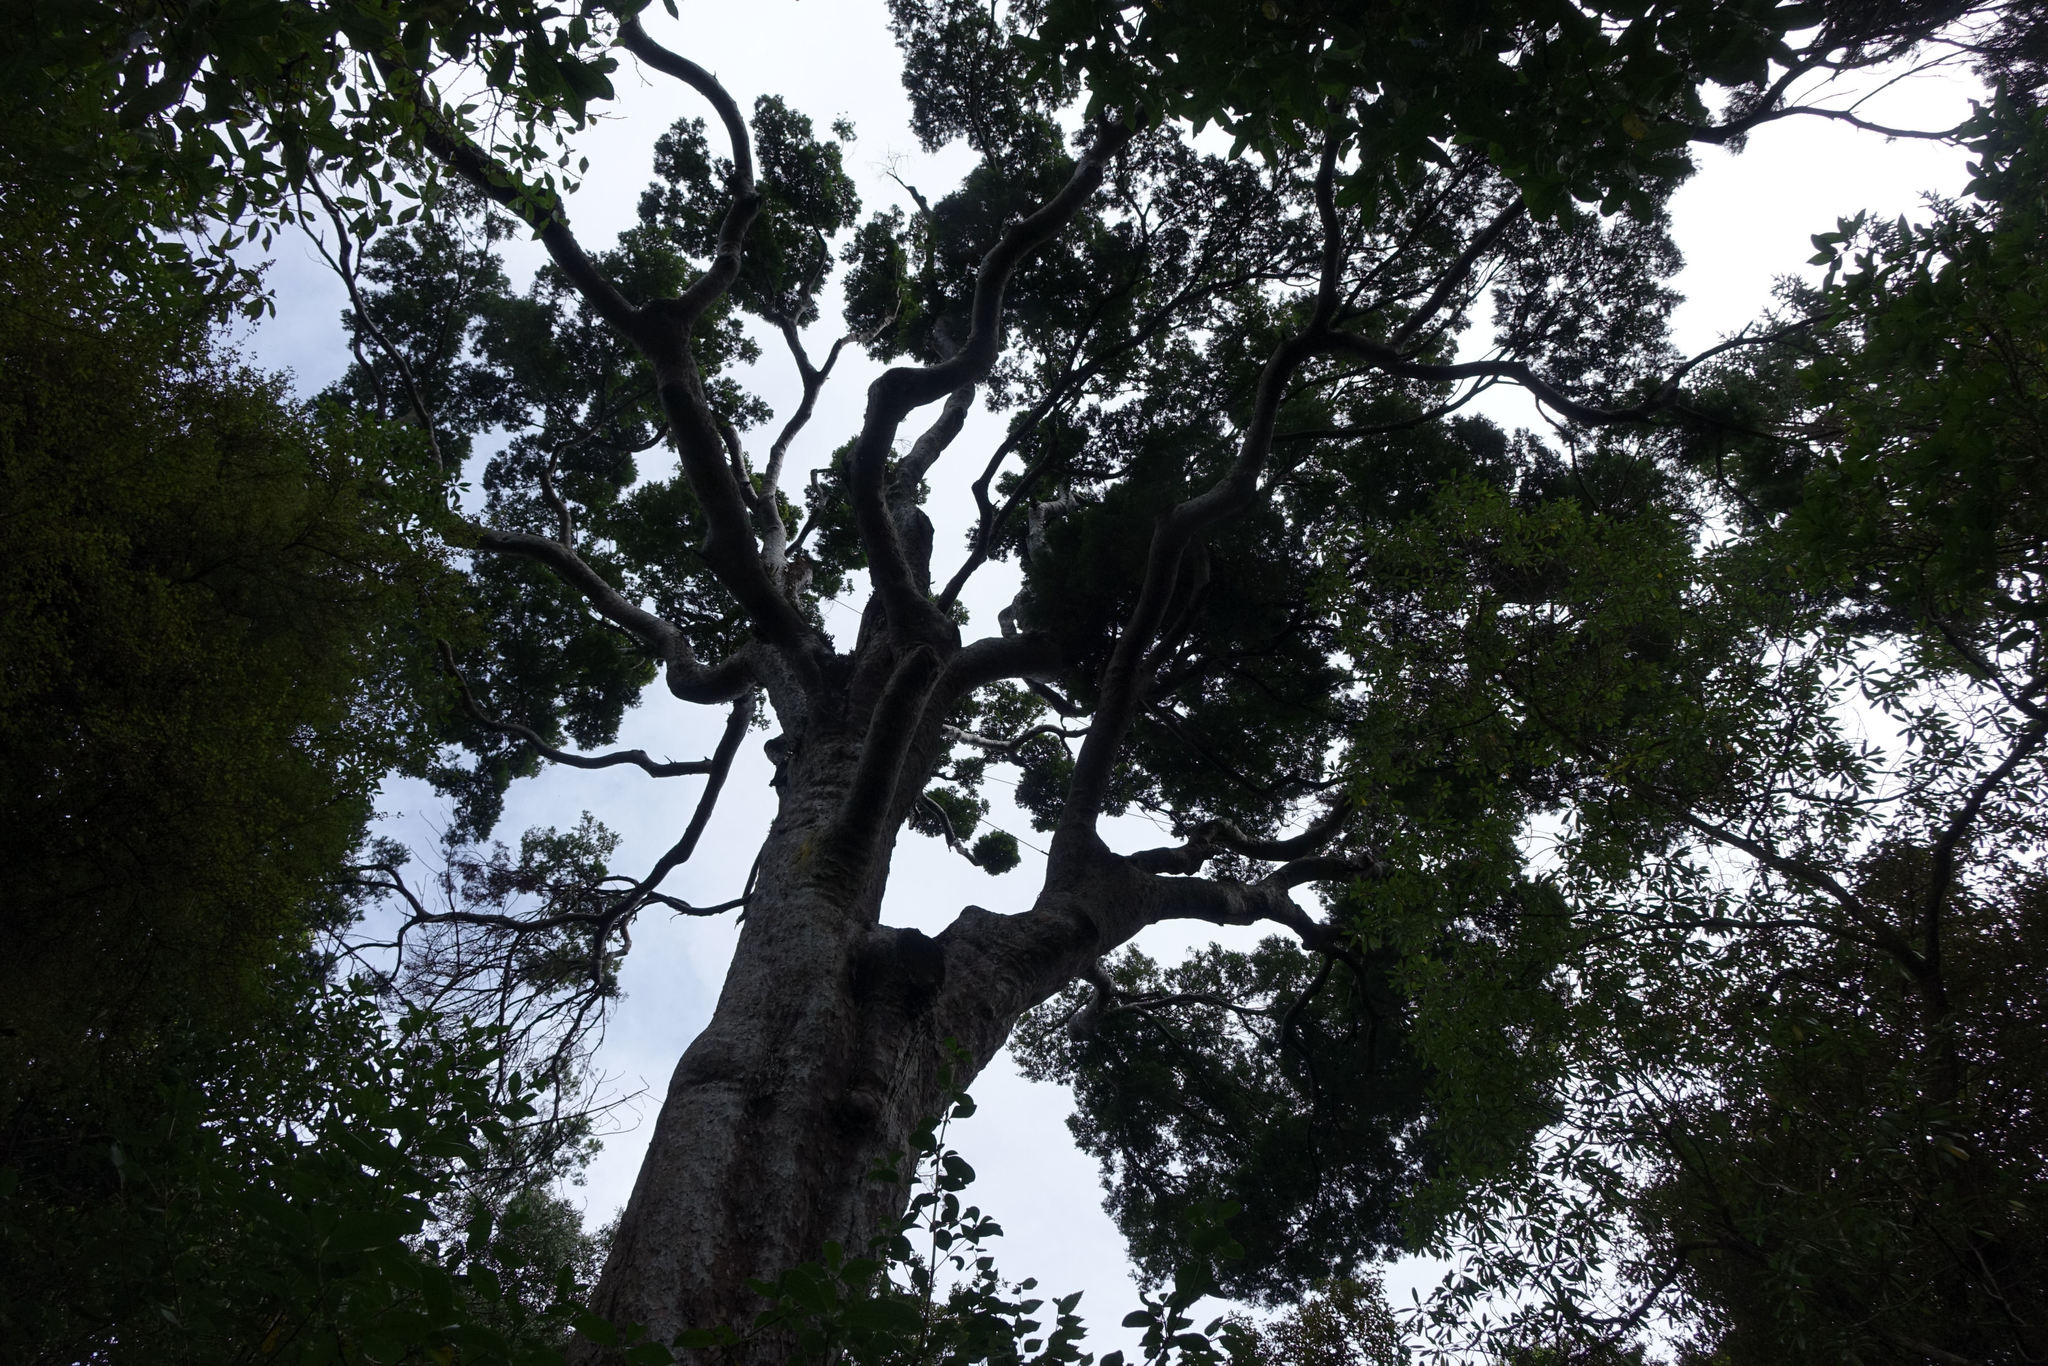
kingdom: Plantae
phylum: Tracheophyta
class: Pinopsida
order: Pinales
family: Podocarpaceae
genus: Prumnopitys
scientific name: Prumnopitys taxifolia
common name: Matai
